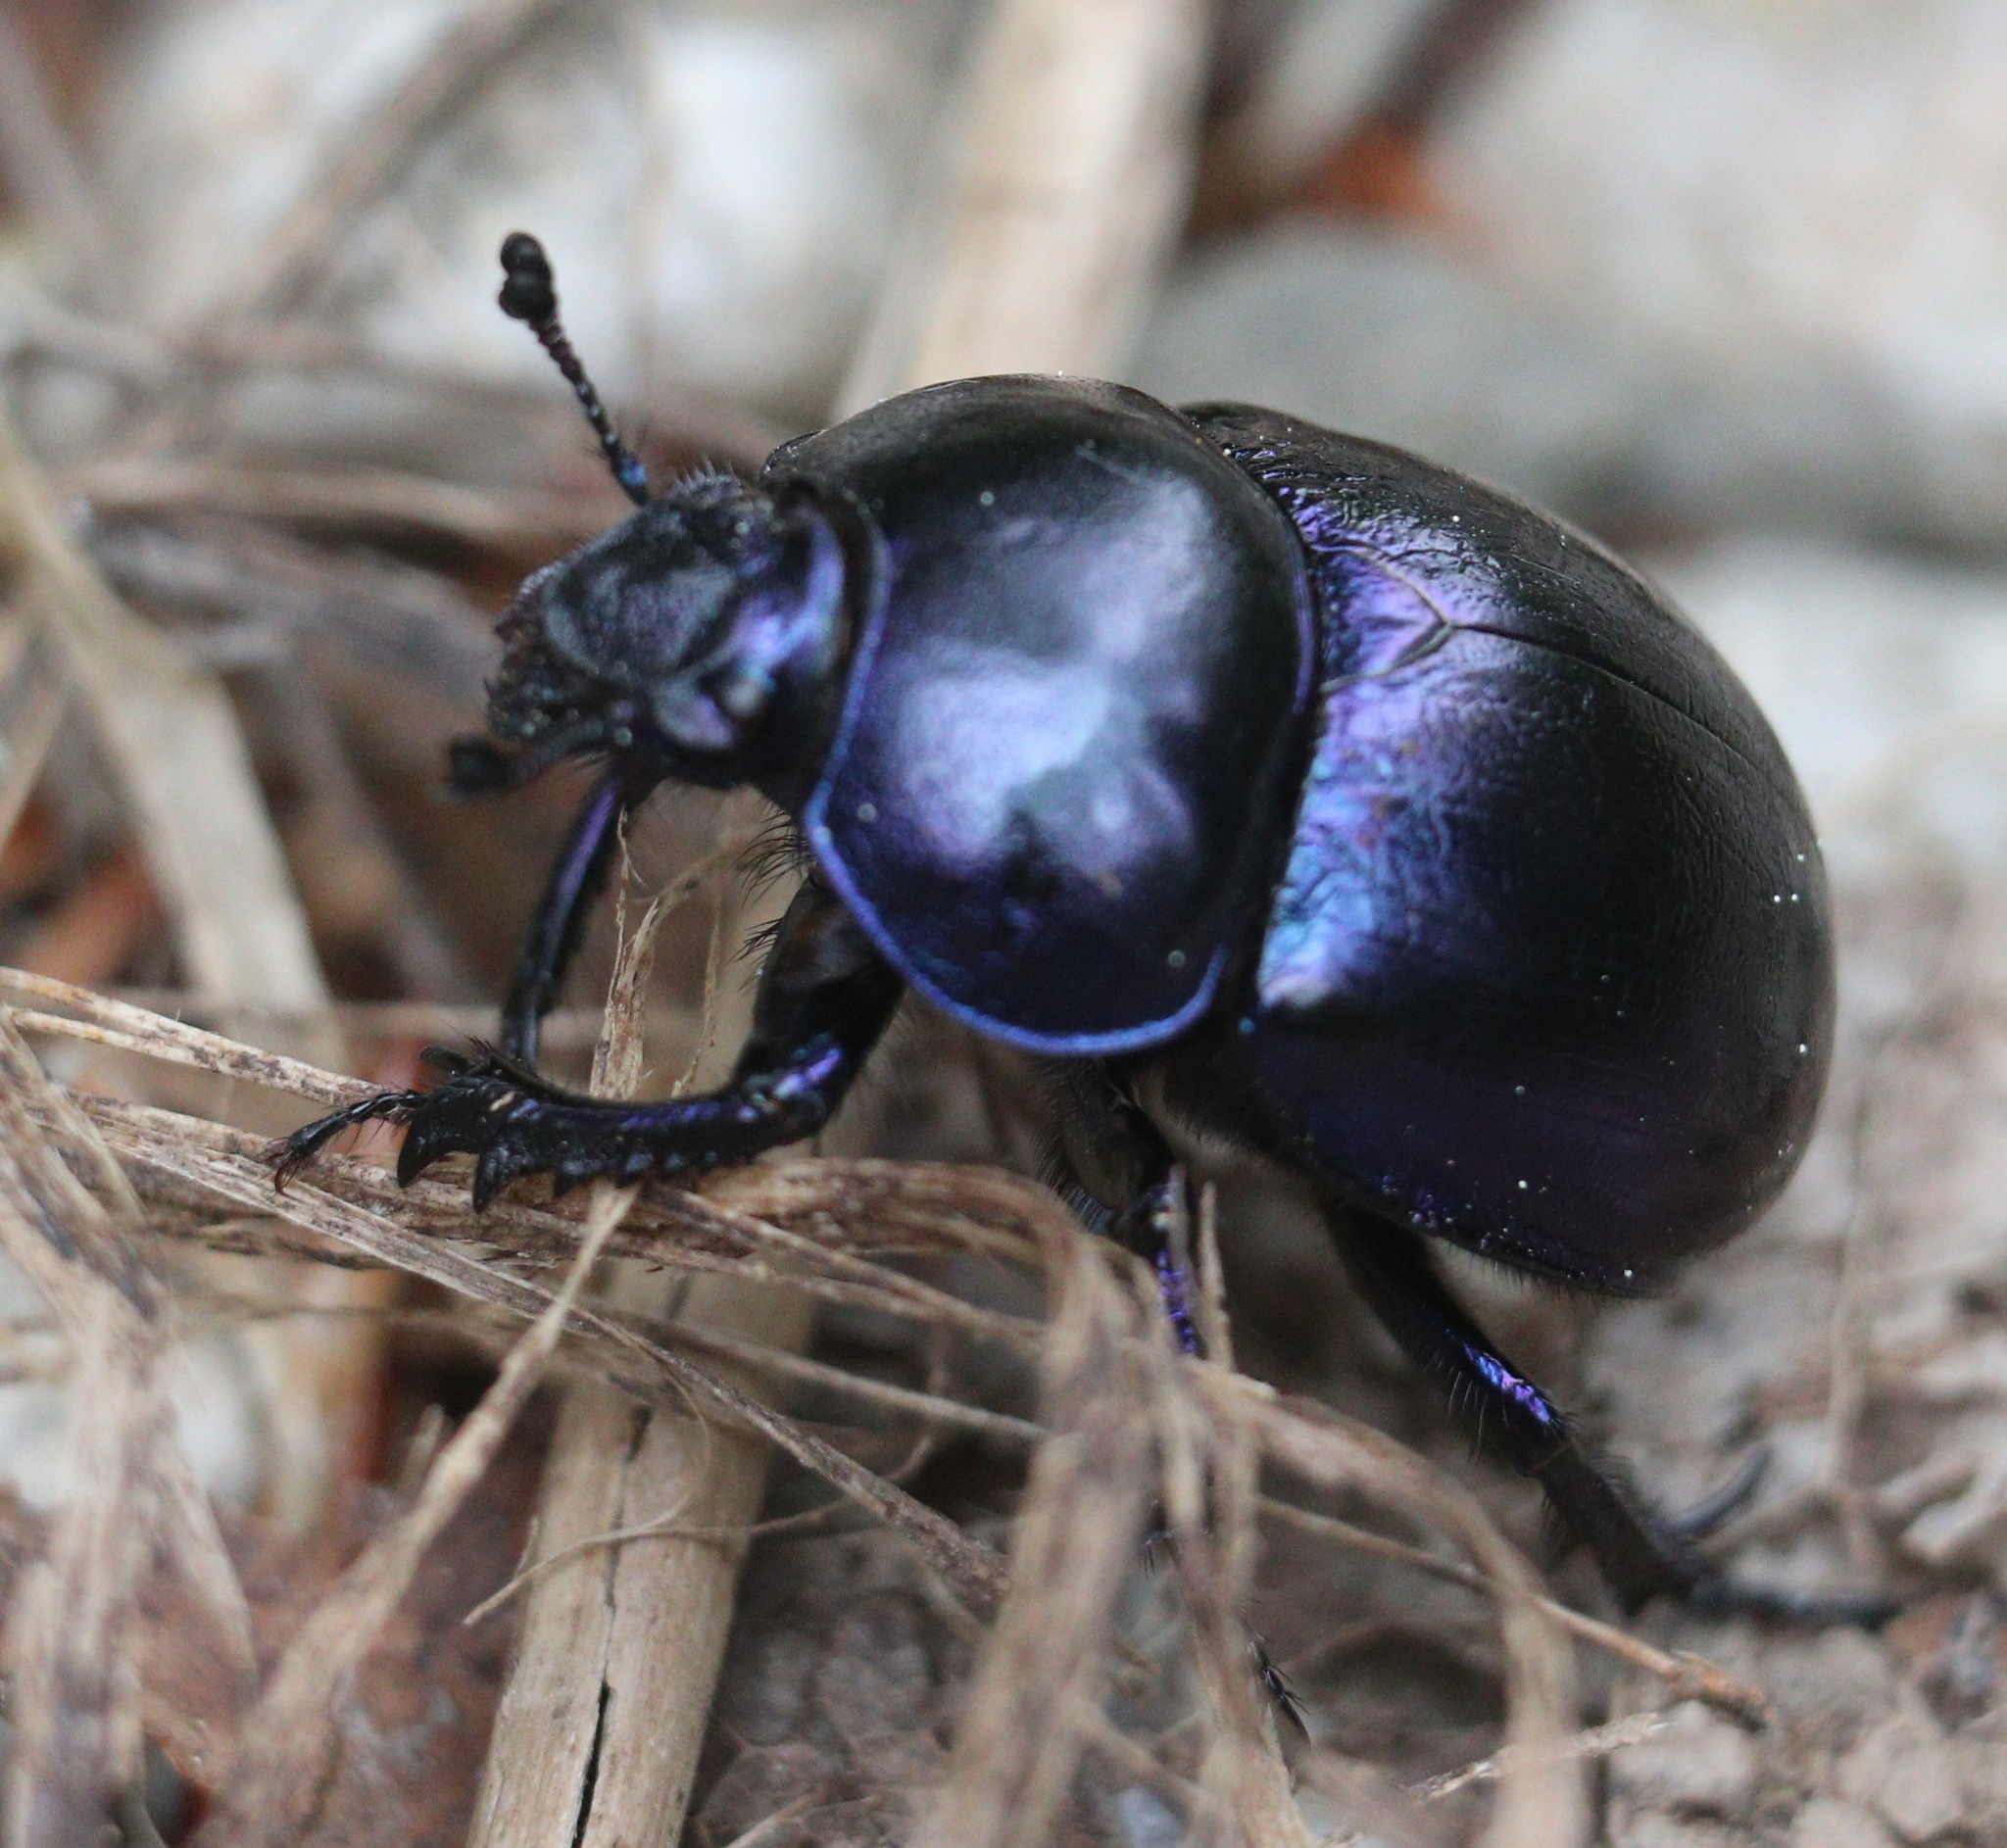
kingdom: Animalia
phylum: Arthropoda
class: Insecta
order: Coleoptera
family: Geotrupidae
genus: Trypocopris
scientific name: Trypocopris vernalis
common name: Spring dumbledor
